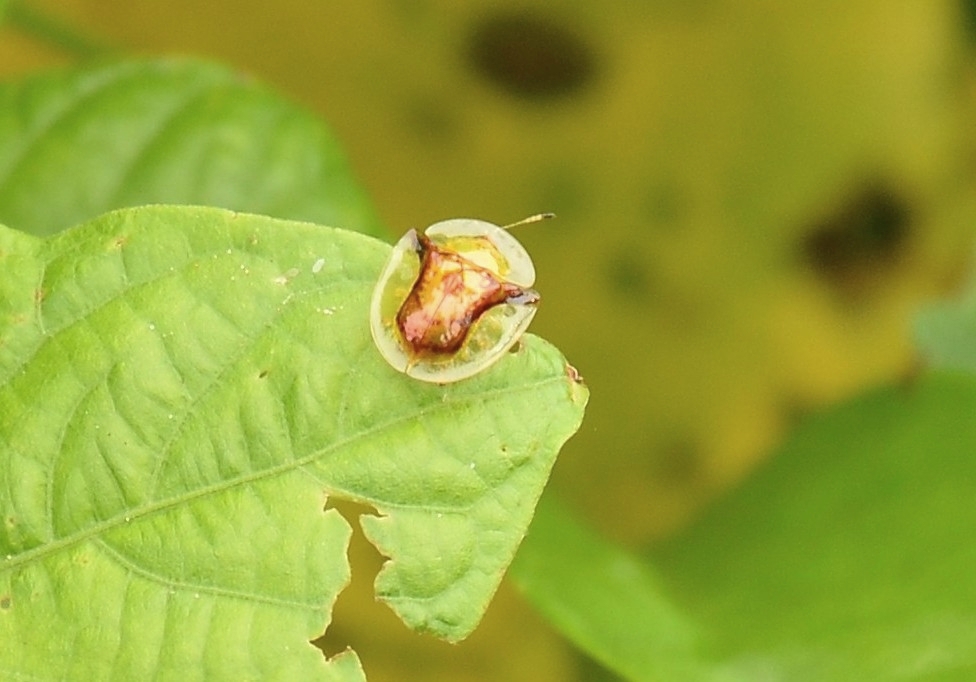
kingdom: Animalia
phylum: Arthropoda
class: Insecta
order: Coleoptera
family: Chrysomelidae
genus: Aspidimorpha
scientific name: Aspidimorpha furcata
